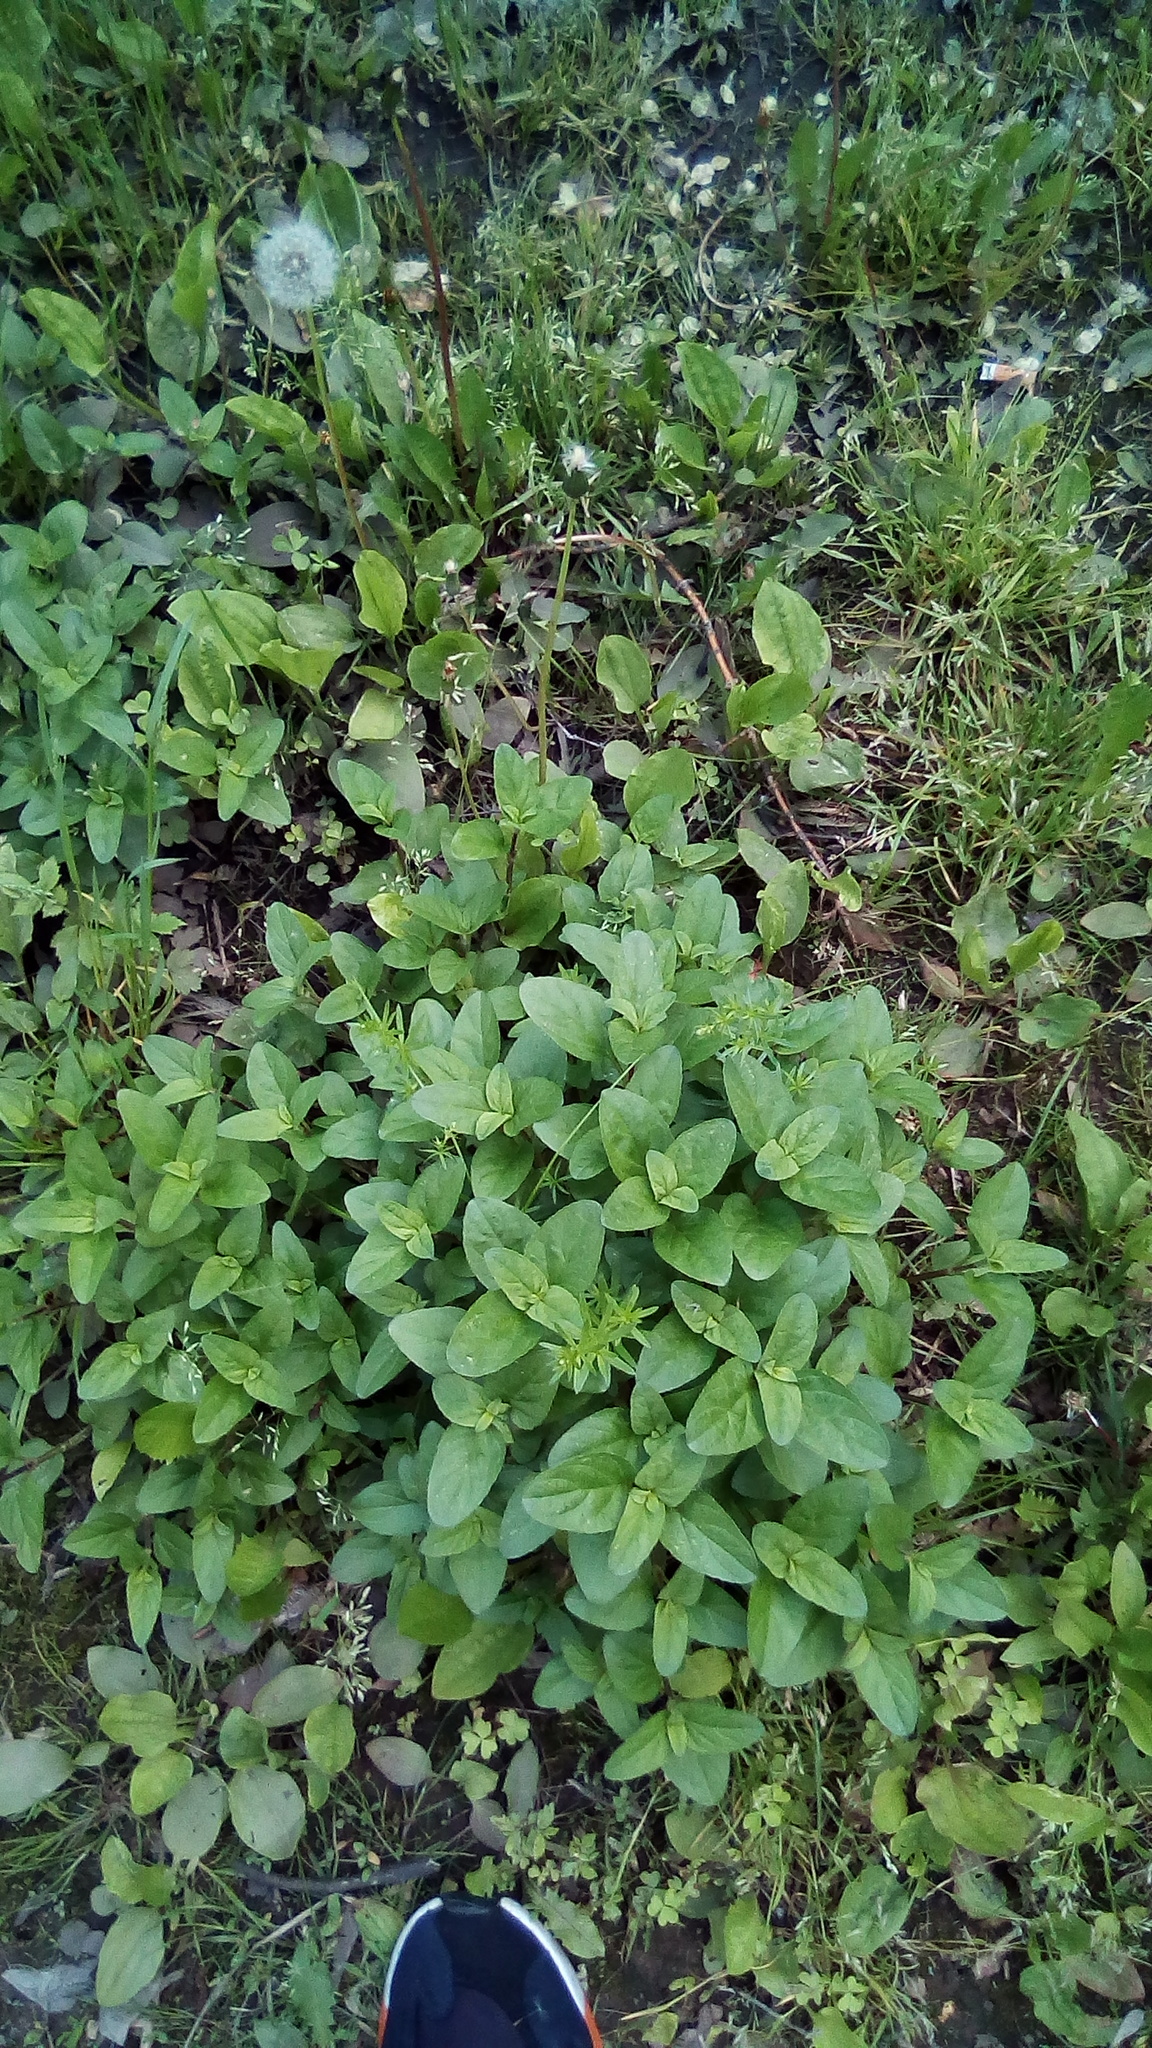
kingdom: Plantae
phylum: Tracheophyta
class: Magnoliopsida
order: Lamiales
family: Lamiaceae
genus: Prunella
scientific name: Prunella vulgaris
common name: Heal-all
